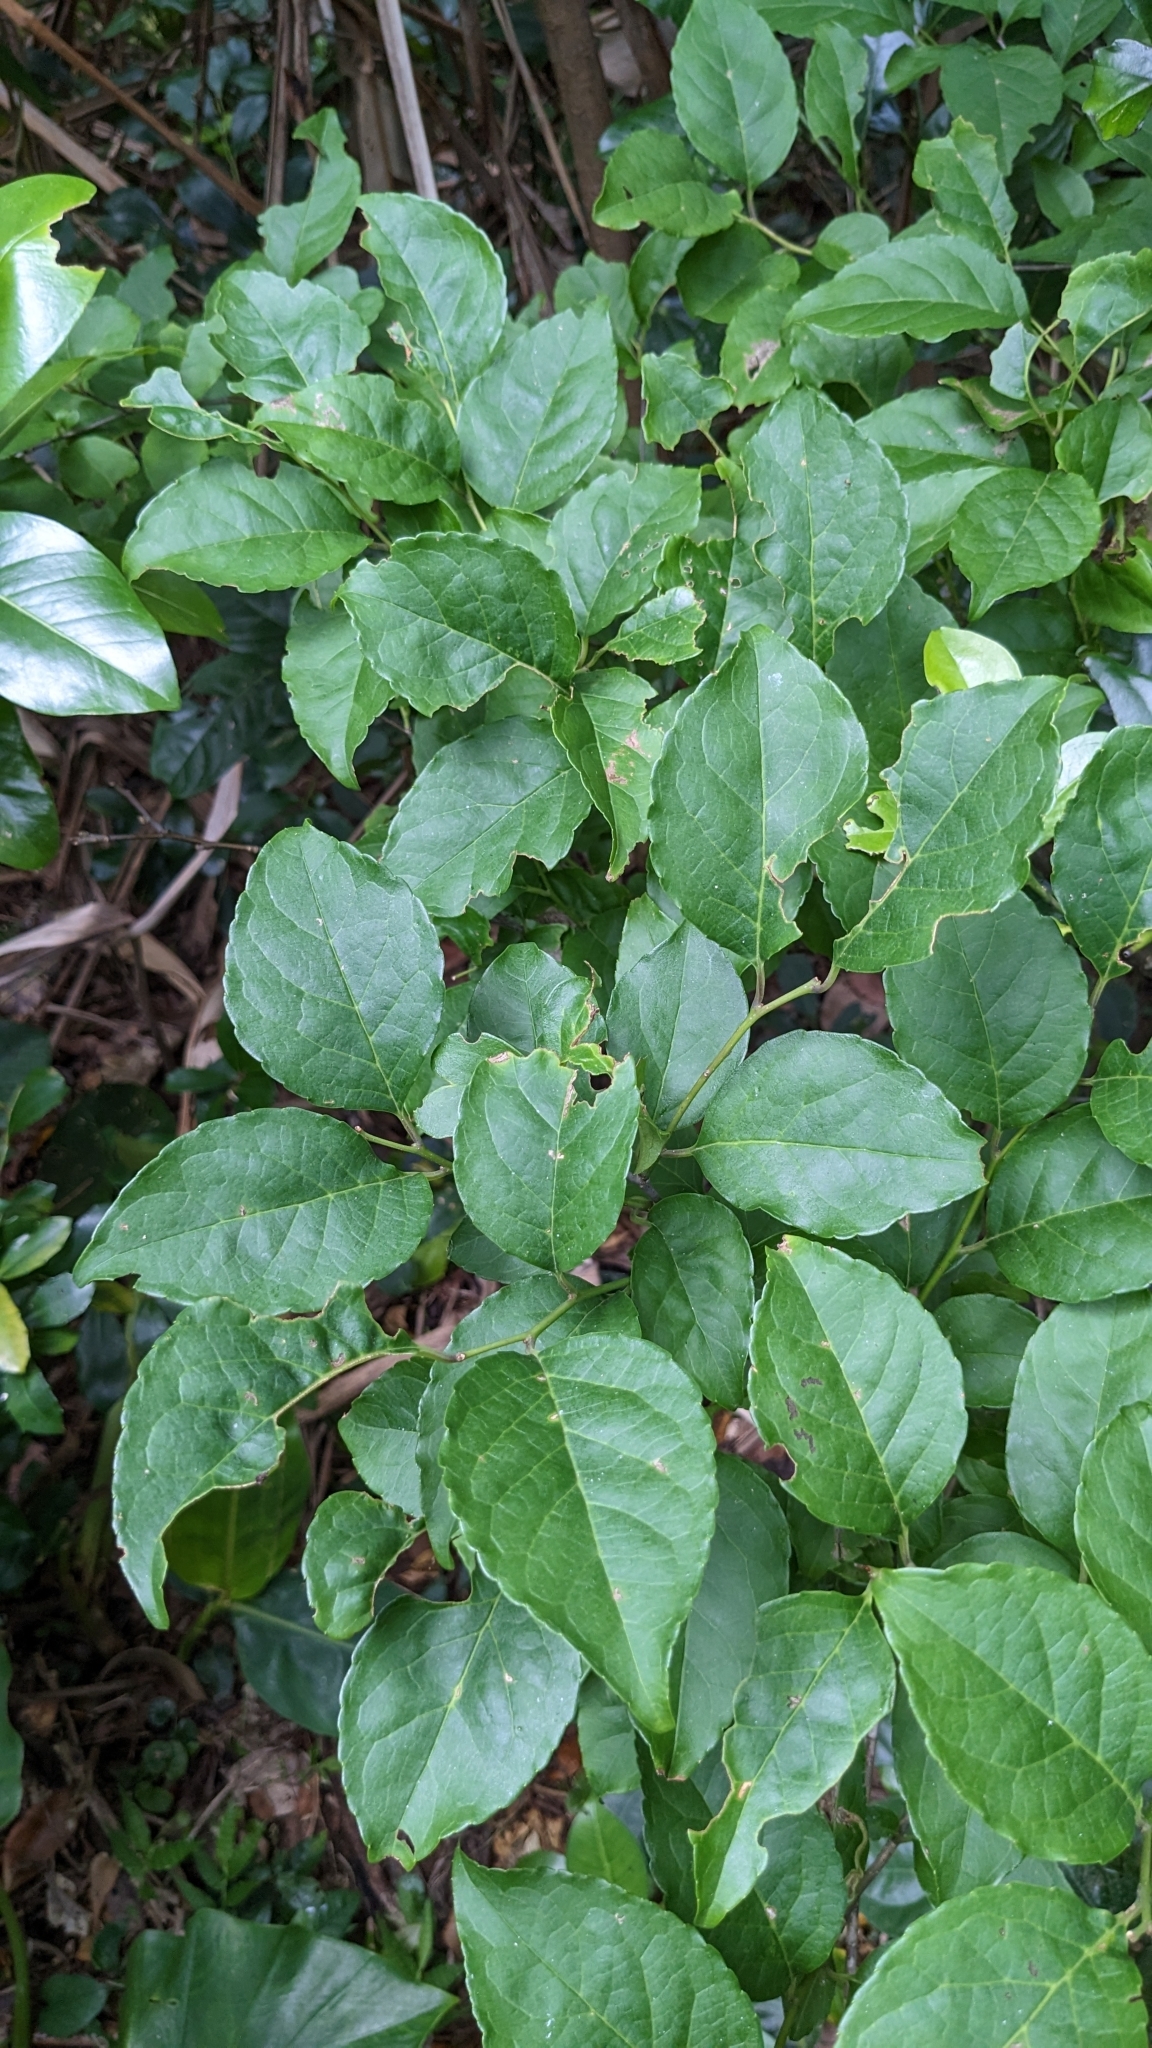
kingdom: Plantae
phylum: Tracheophyta
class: Magnoliopsida
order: Aquifoliales
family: Aquifoliaceae
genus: Ilex
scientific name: Ilex kusanoi
